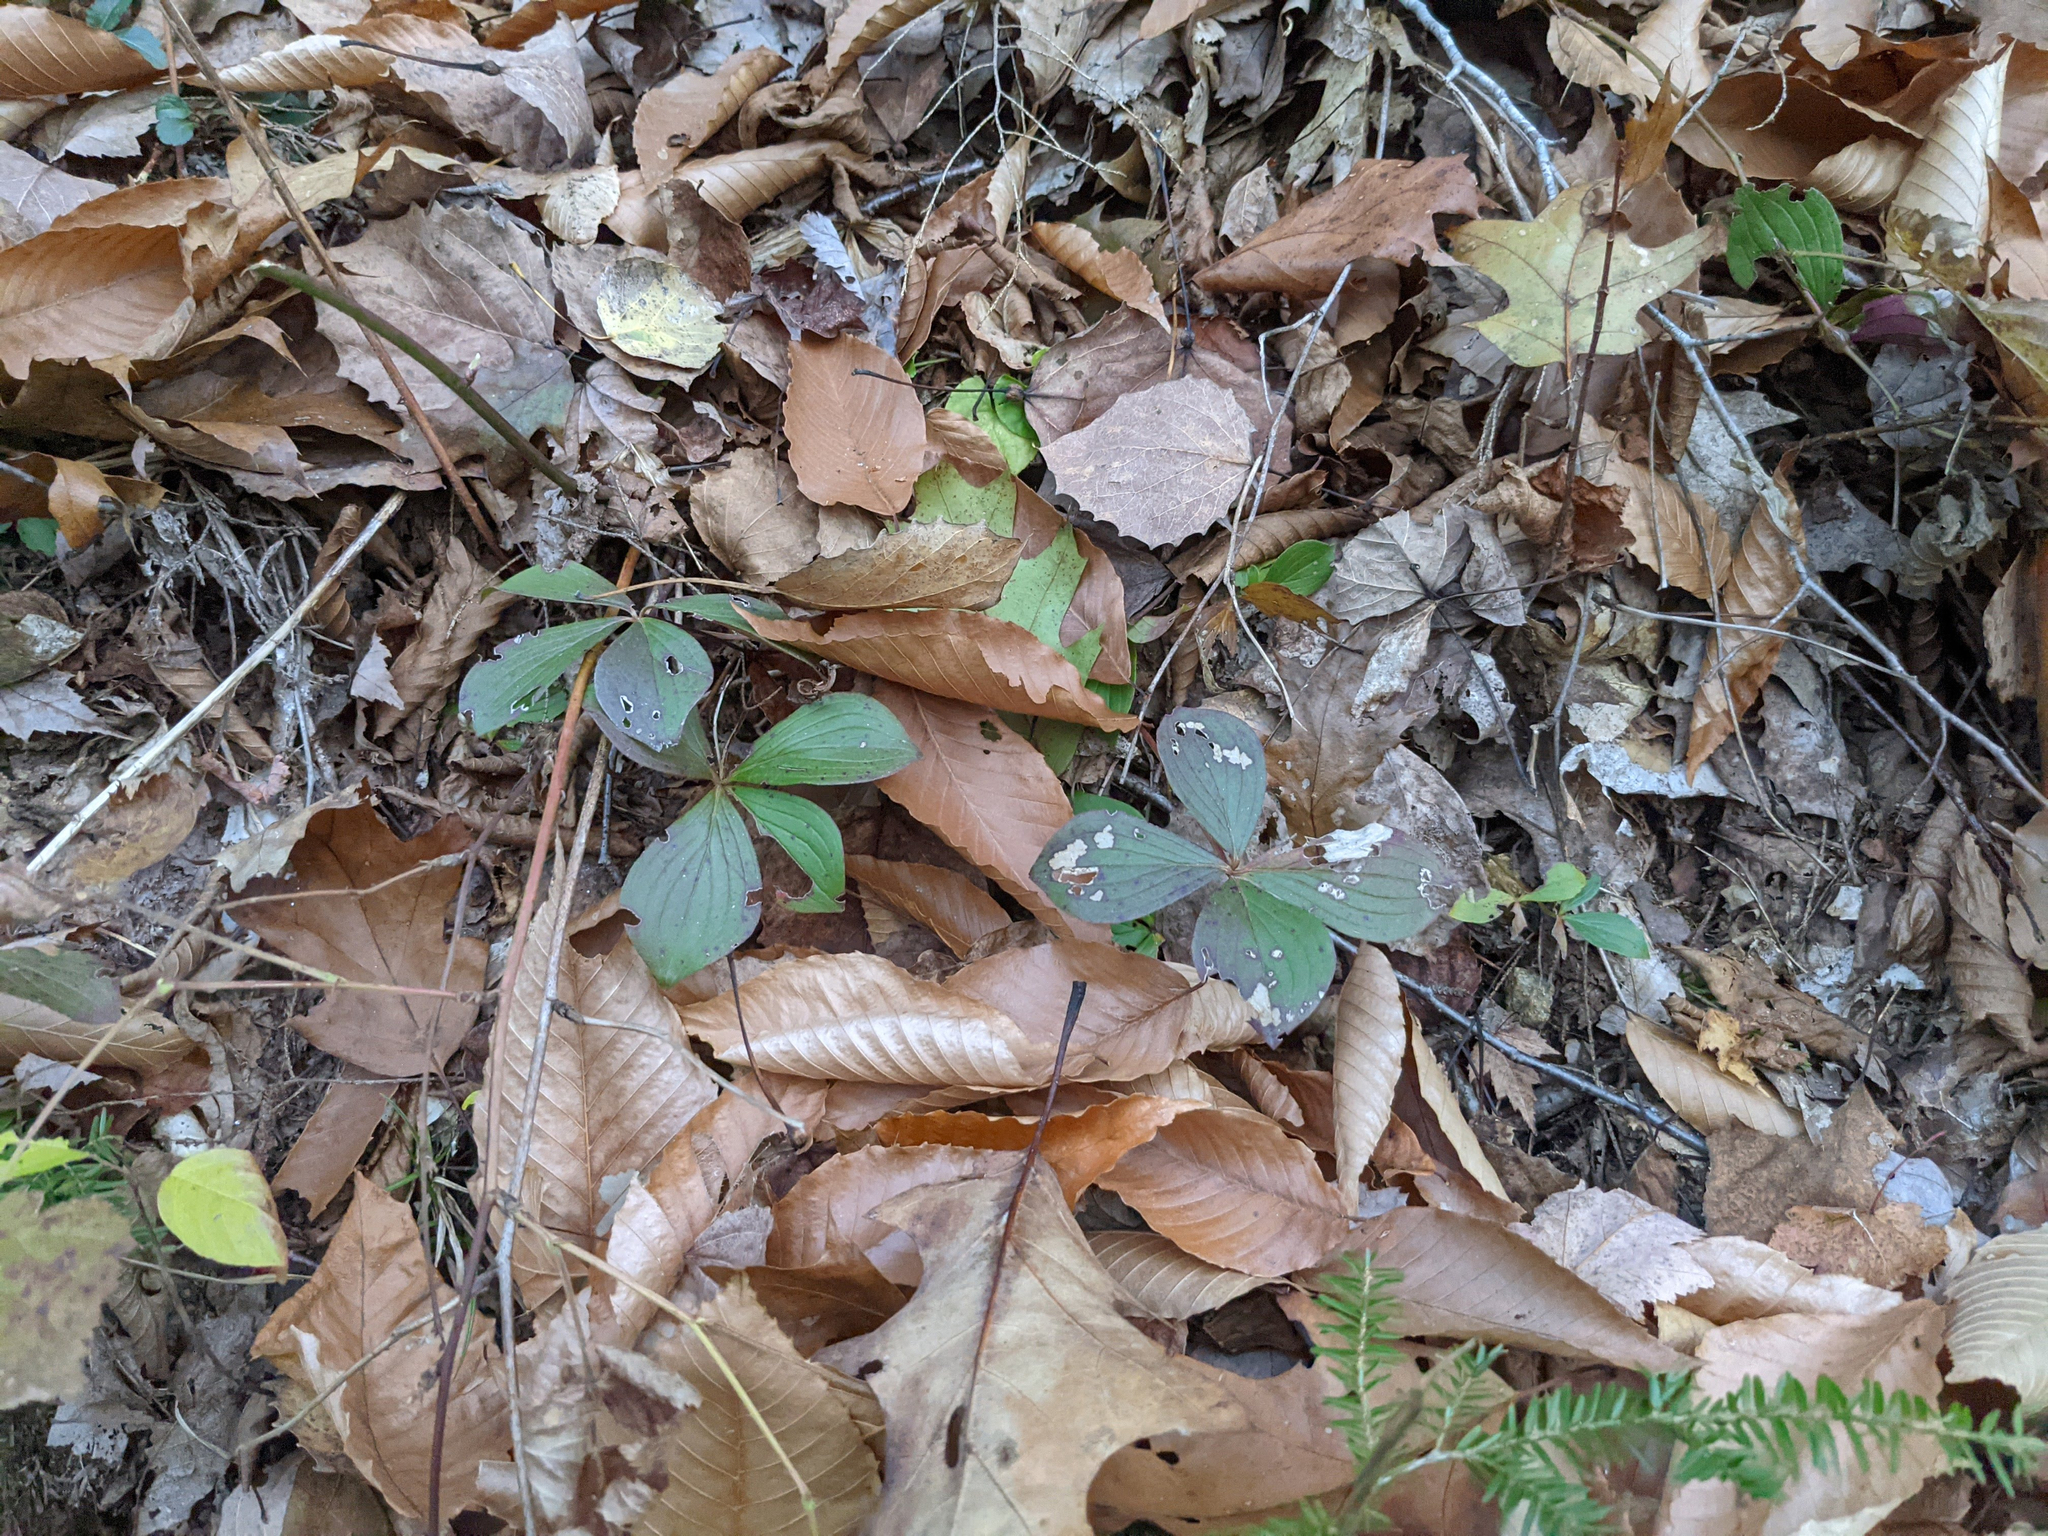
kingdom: Plantae
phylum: Tracheophyta
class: Magnoliopsida
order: Cornales
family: Cornaceae
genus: Cornus
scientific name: Cornus canadensis
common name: Creeping dogwood
